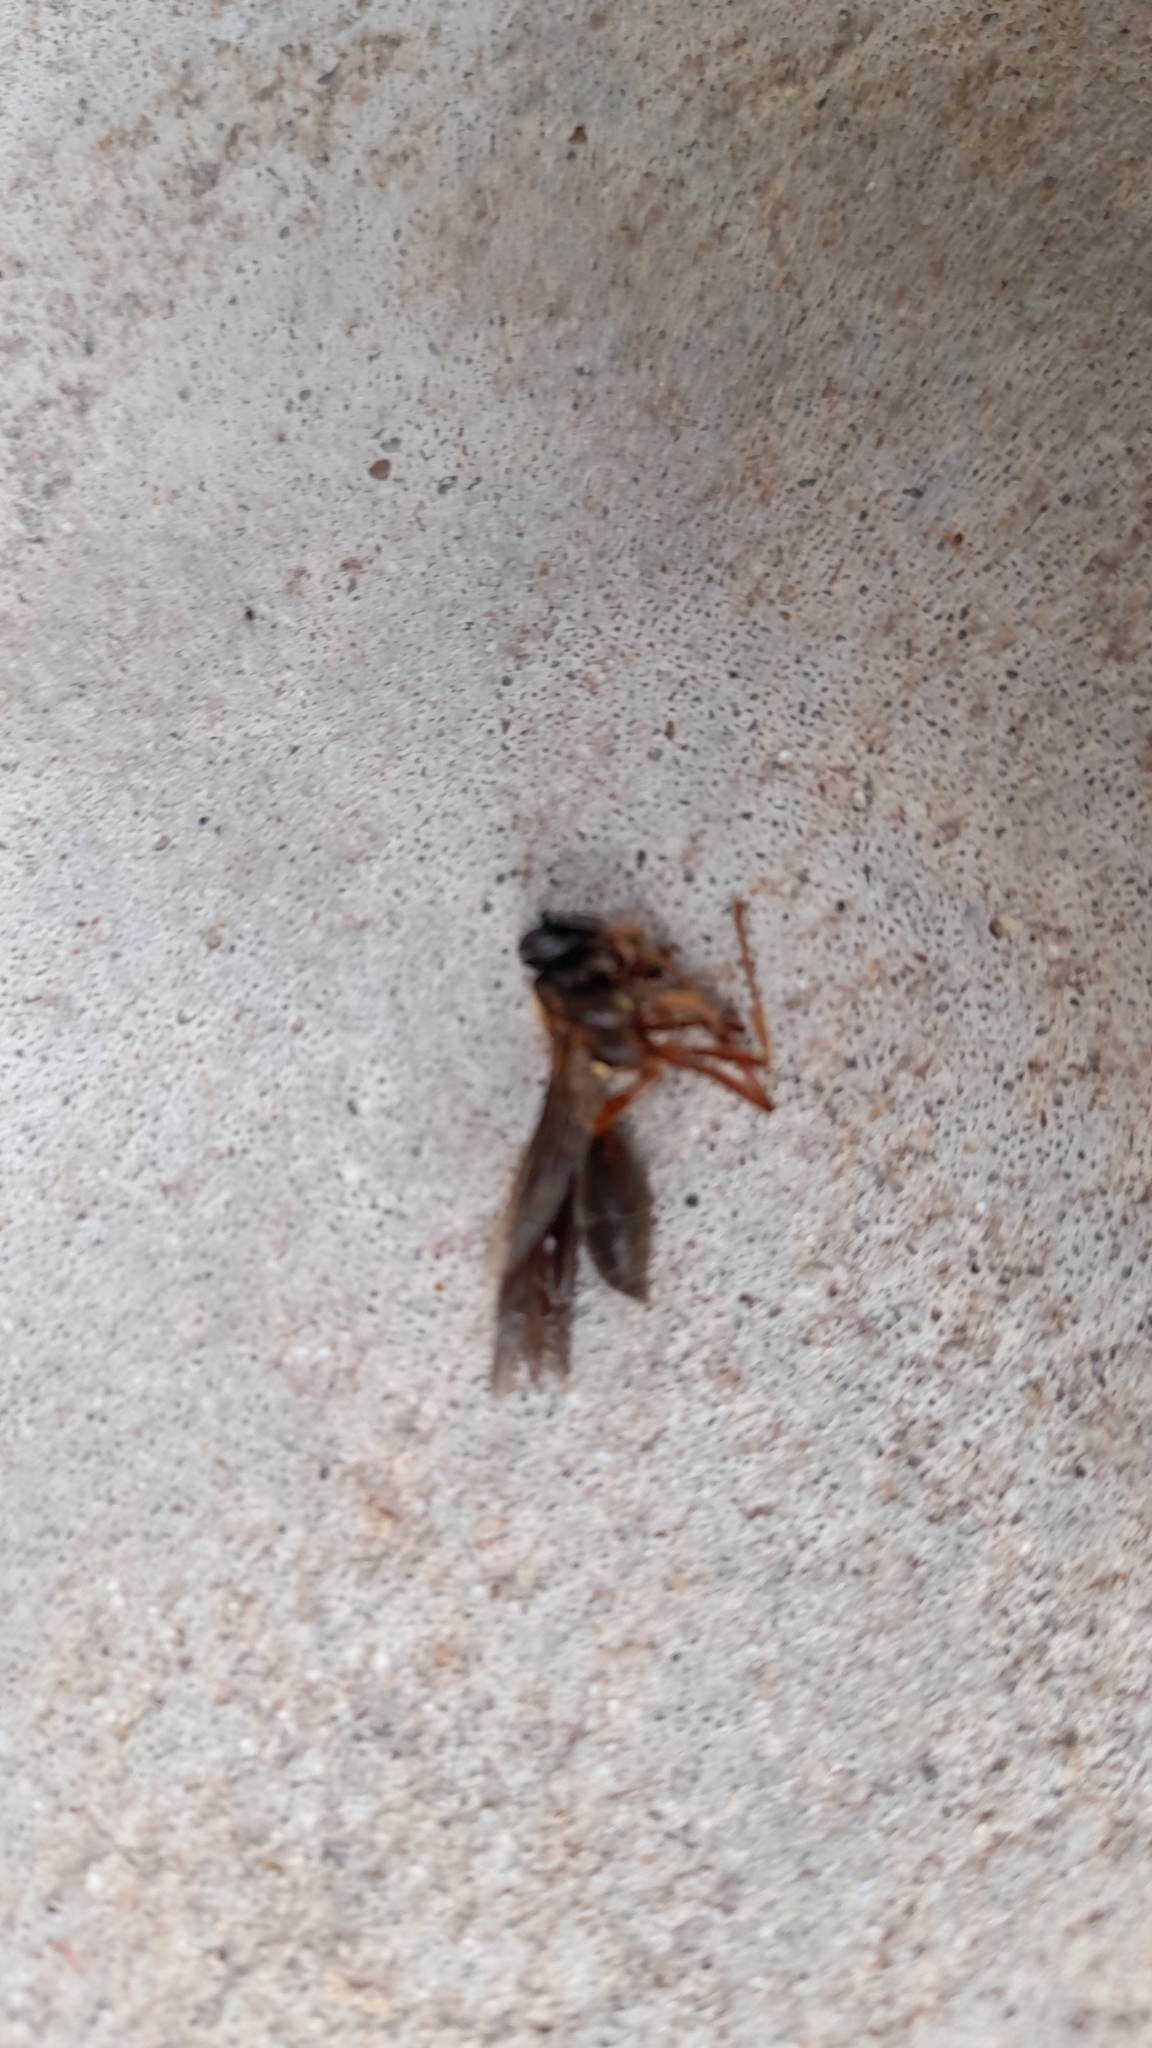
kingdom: Animalia
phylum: Arthropoda
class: Insecta
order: Hymenoptera
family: Eumenidae
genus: Polybia
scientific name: Polybia sericea
